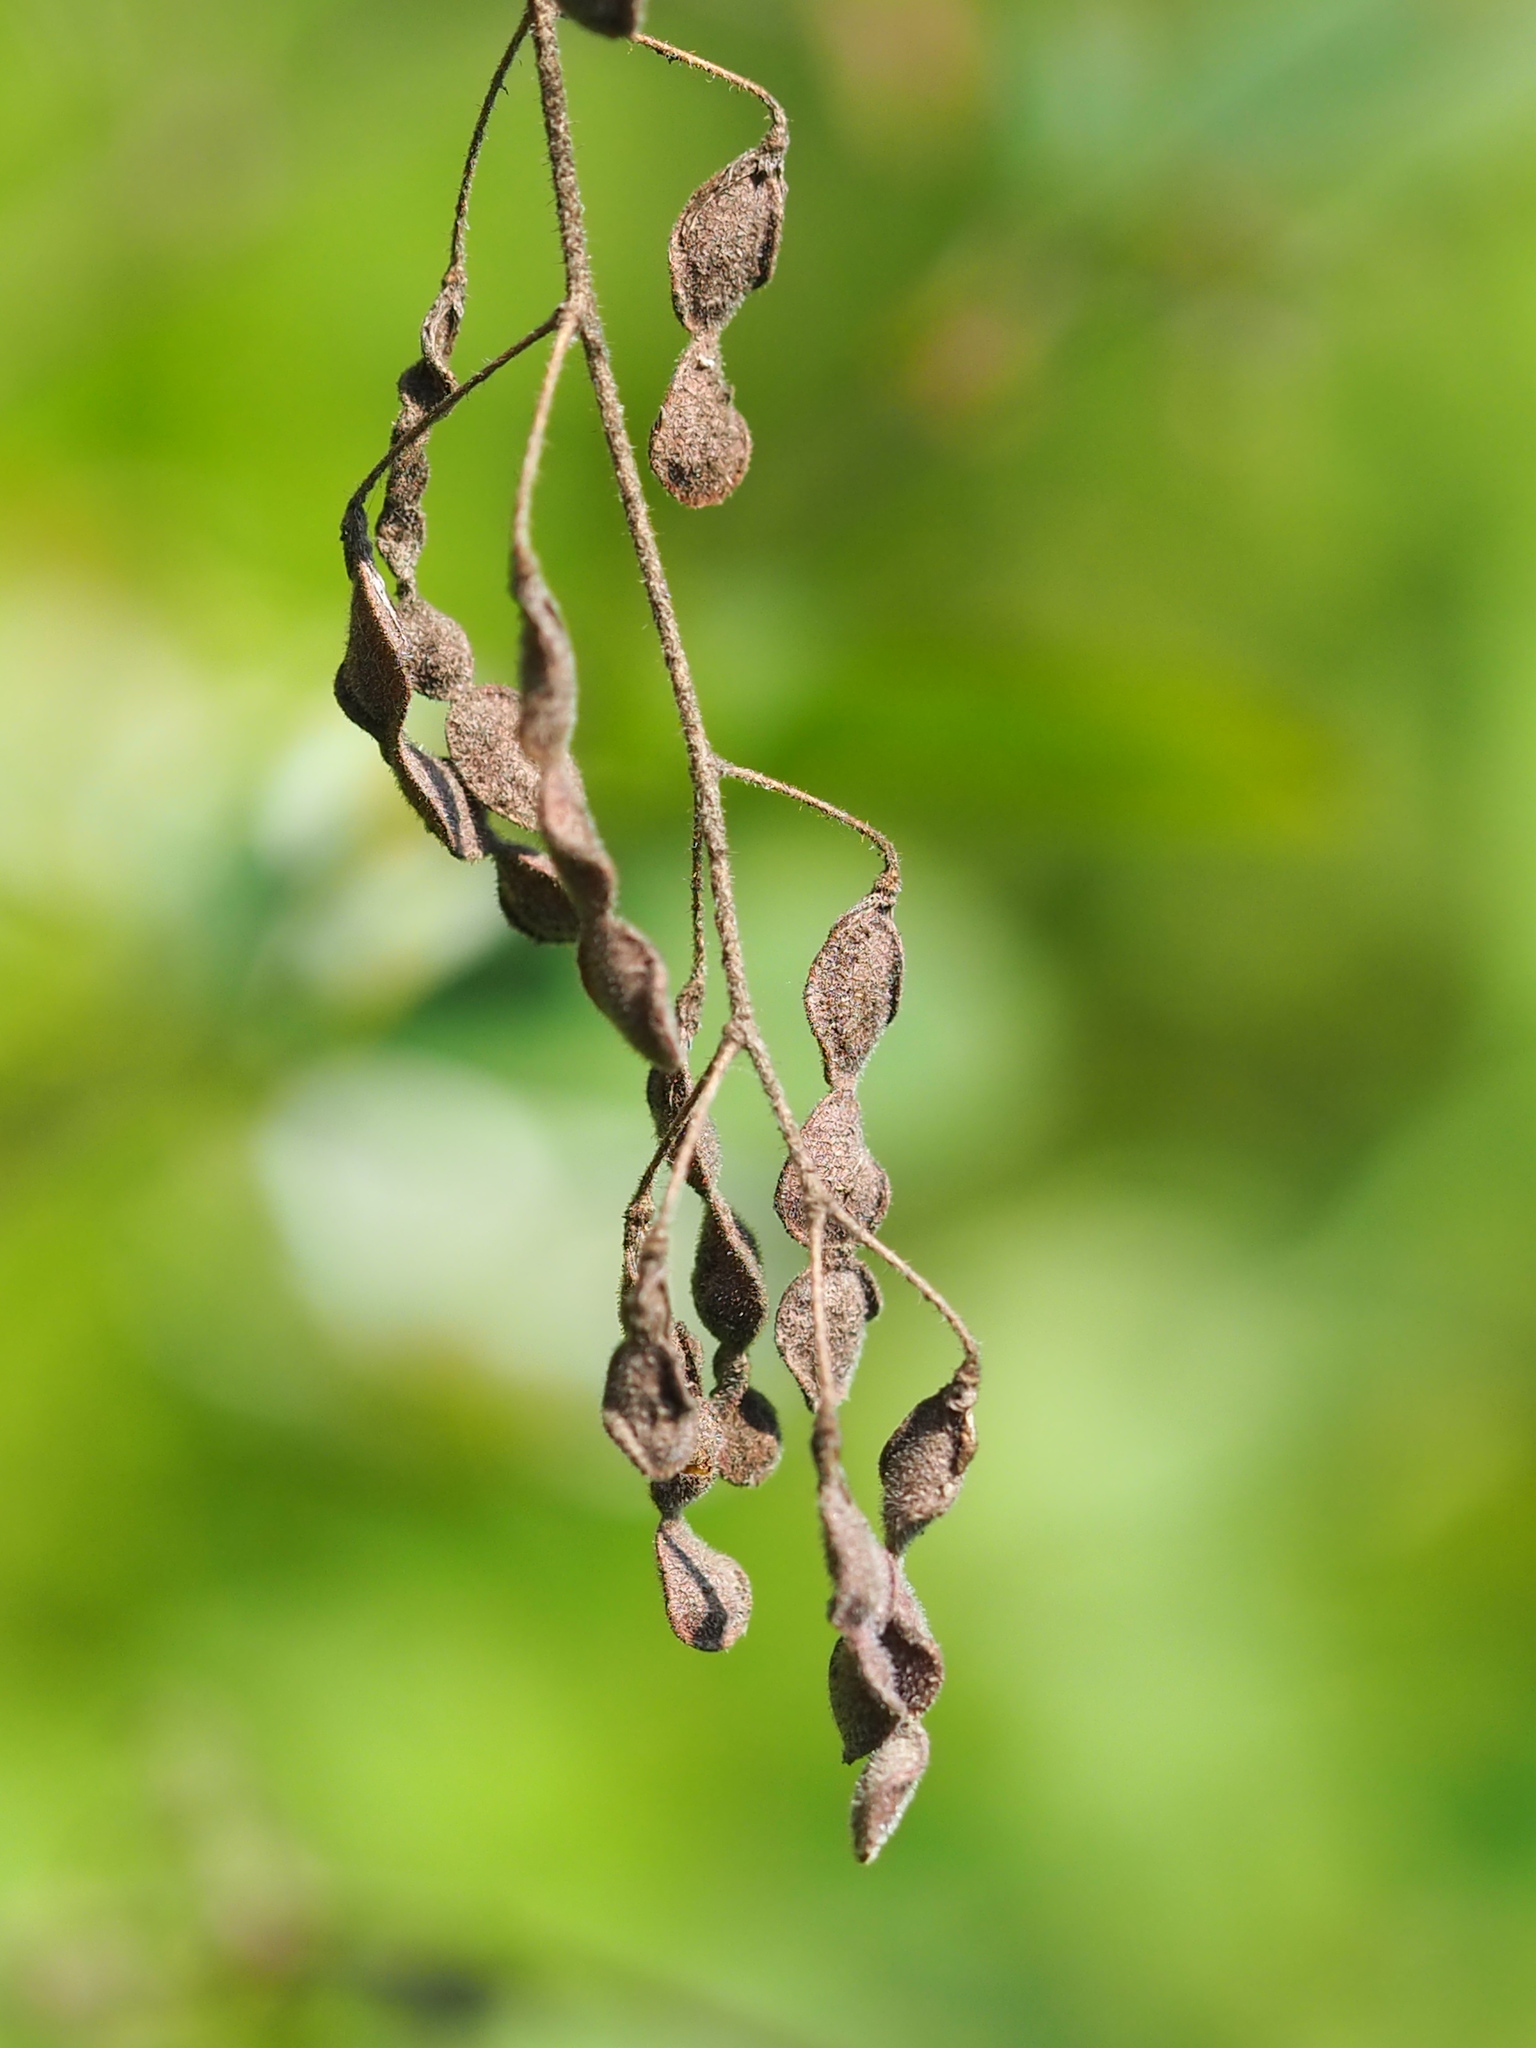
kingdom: Plantae
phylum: Tracheophyta
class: Magnoliopsida
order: Fabales
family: Fabaceae
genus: Desmodium
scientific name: Desmodium tortuosum
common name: Dixie ticktrefoil
